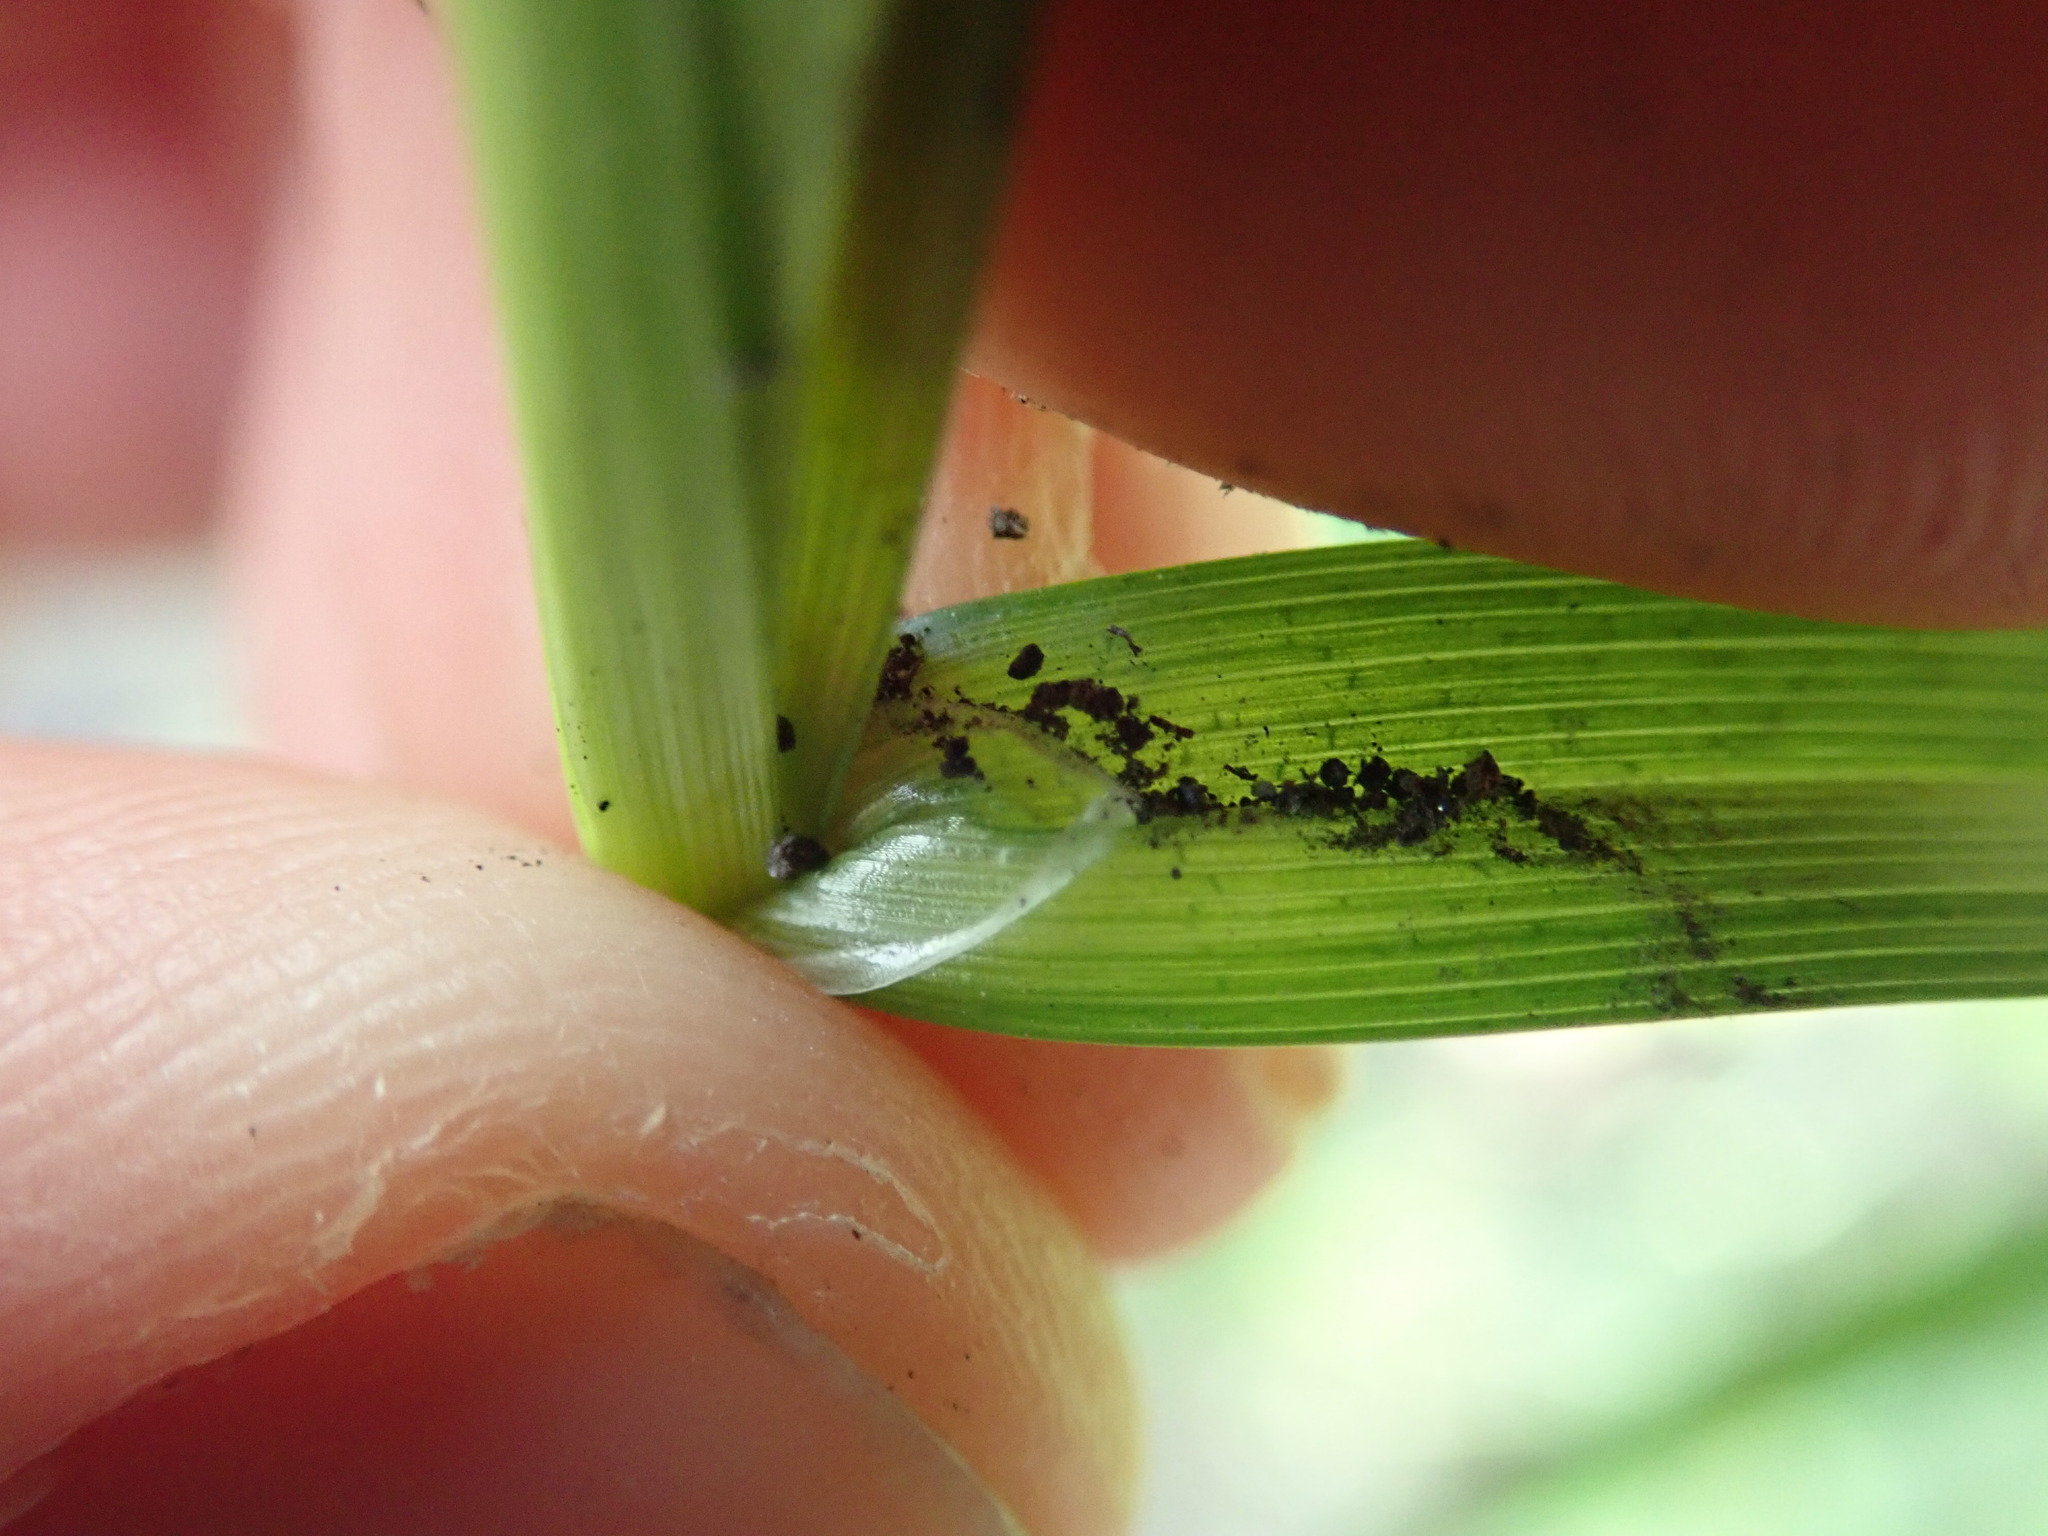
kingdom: Plantae
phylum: Tracheophyta
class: Liliopsida
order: Poales
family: Cyperaceae
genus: Carex
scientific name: Carex sylvatica
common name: Wood-sedge
